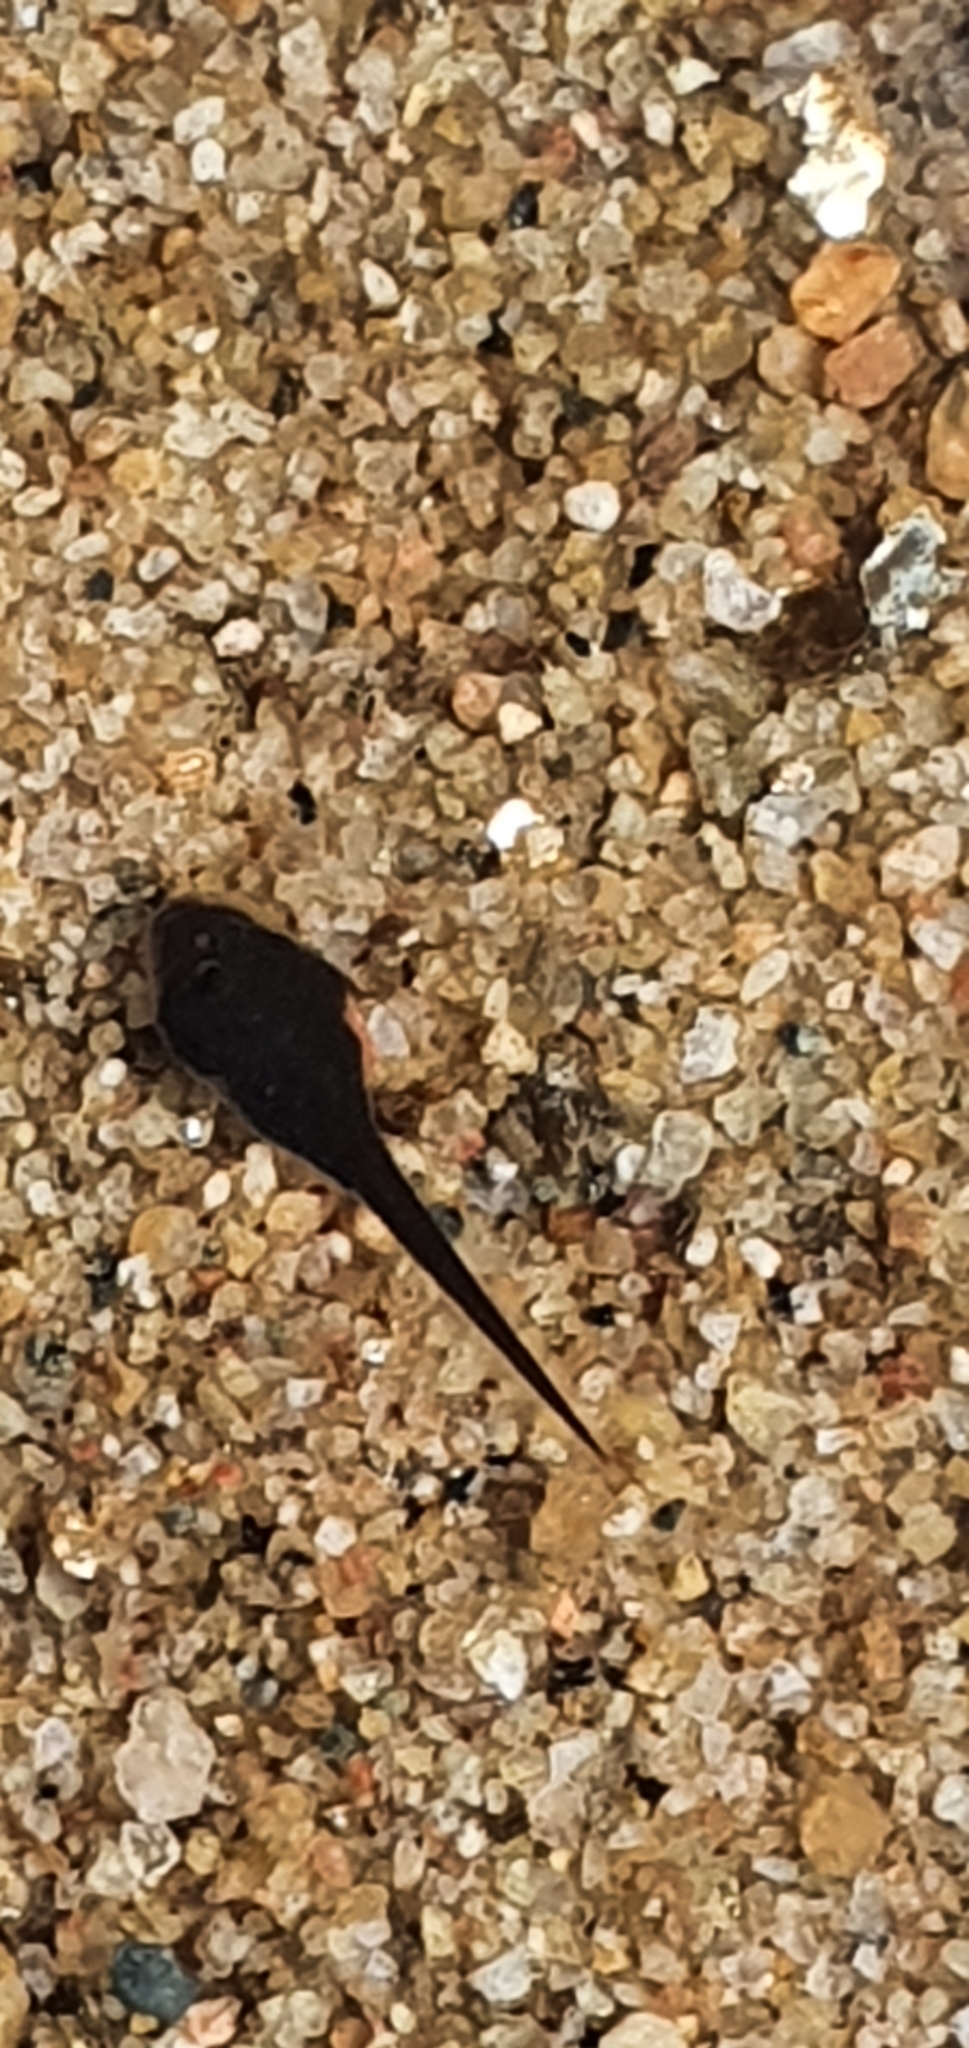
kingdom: Animalia
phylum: Chordata
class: Amphibia
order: Anura
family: Bufonidae
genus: Rhinella
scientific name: Rhinella marina
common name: Cane toad
